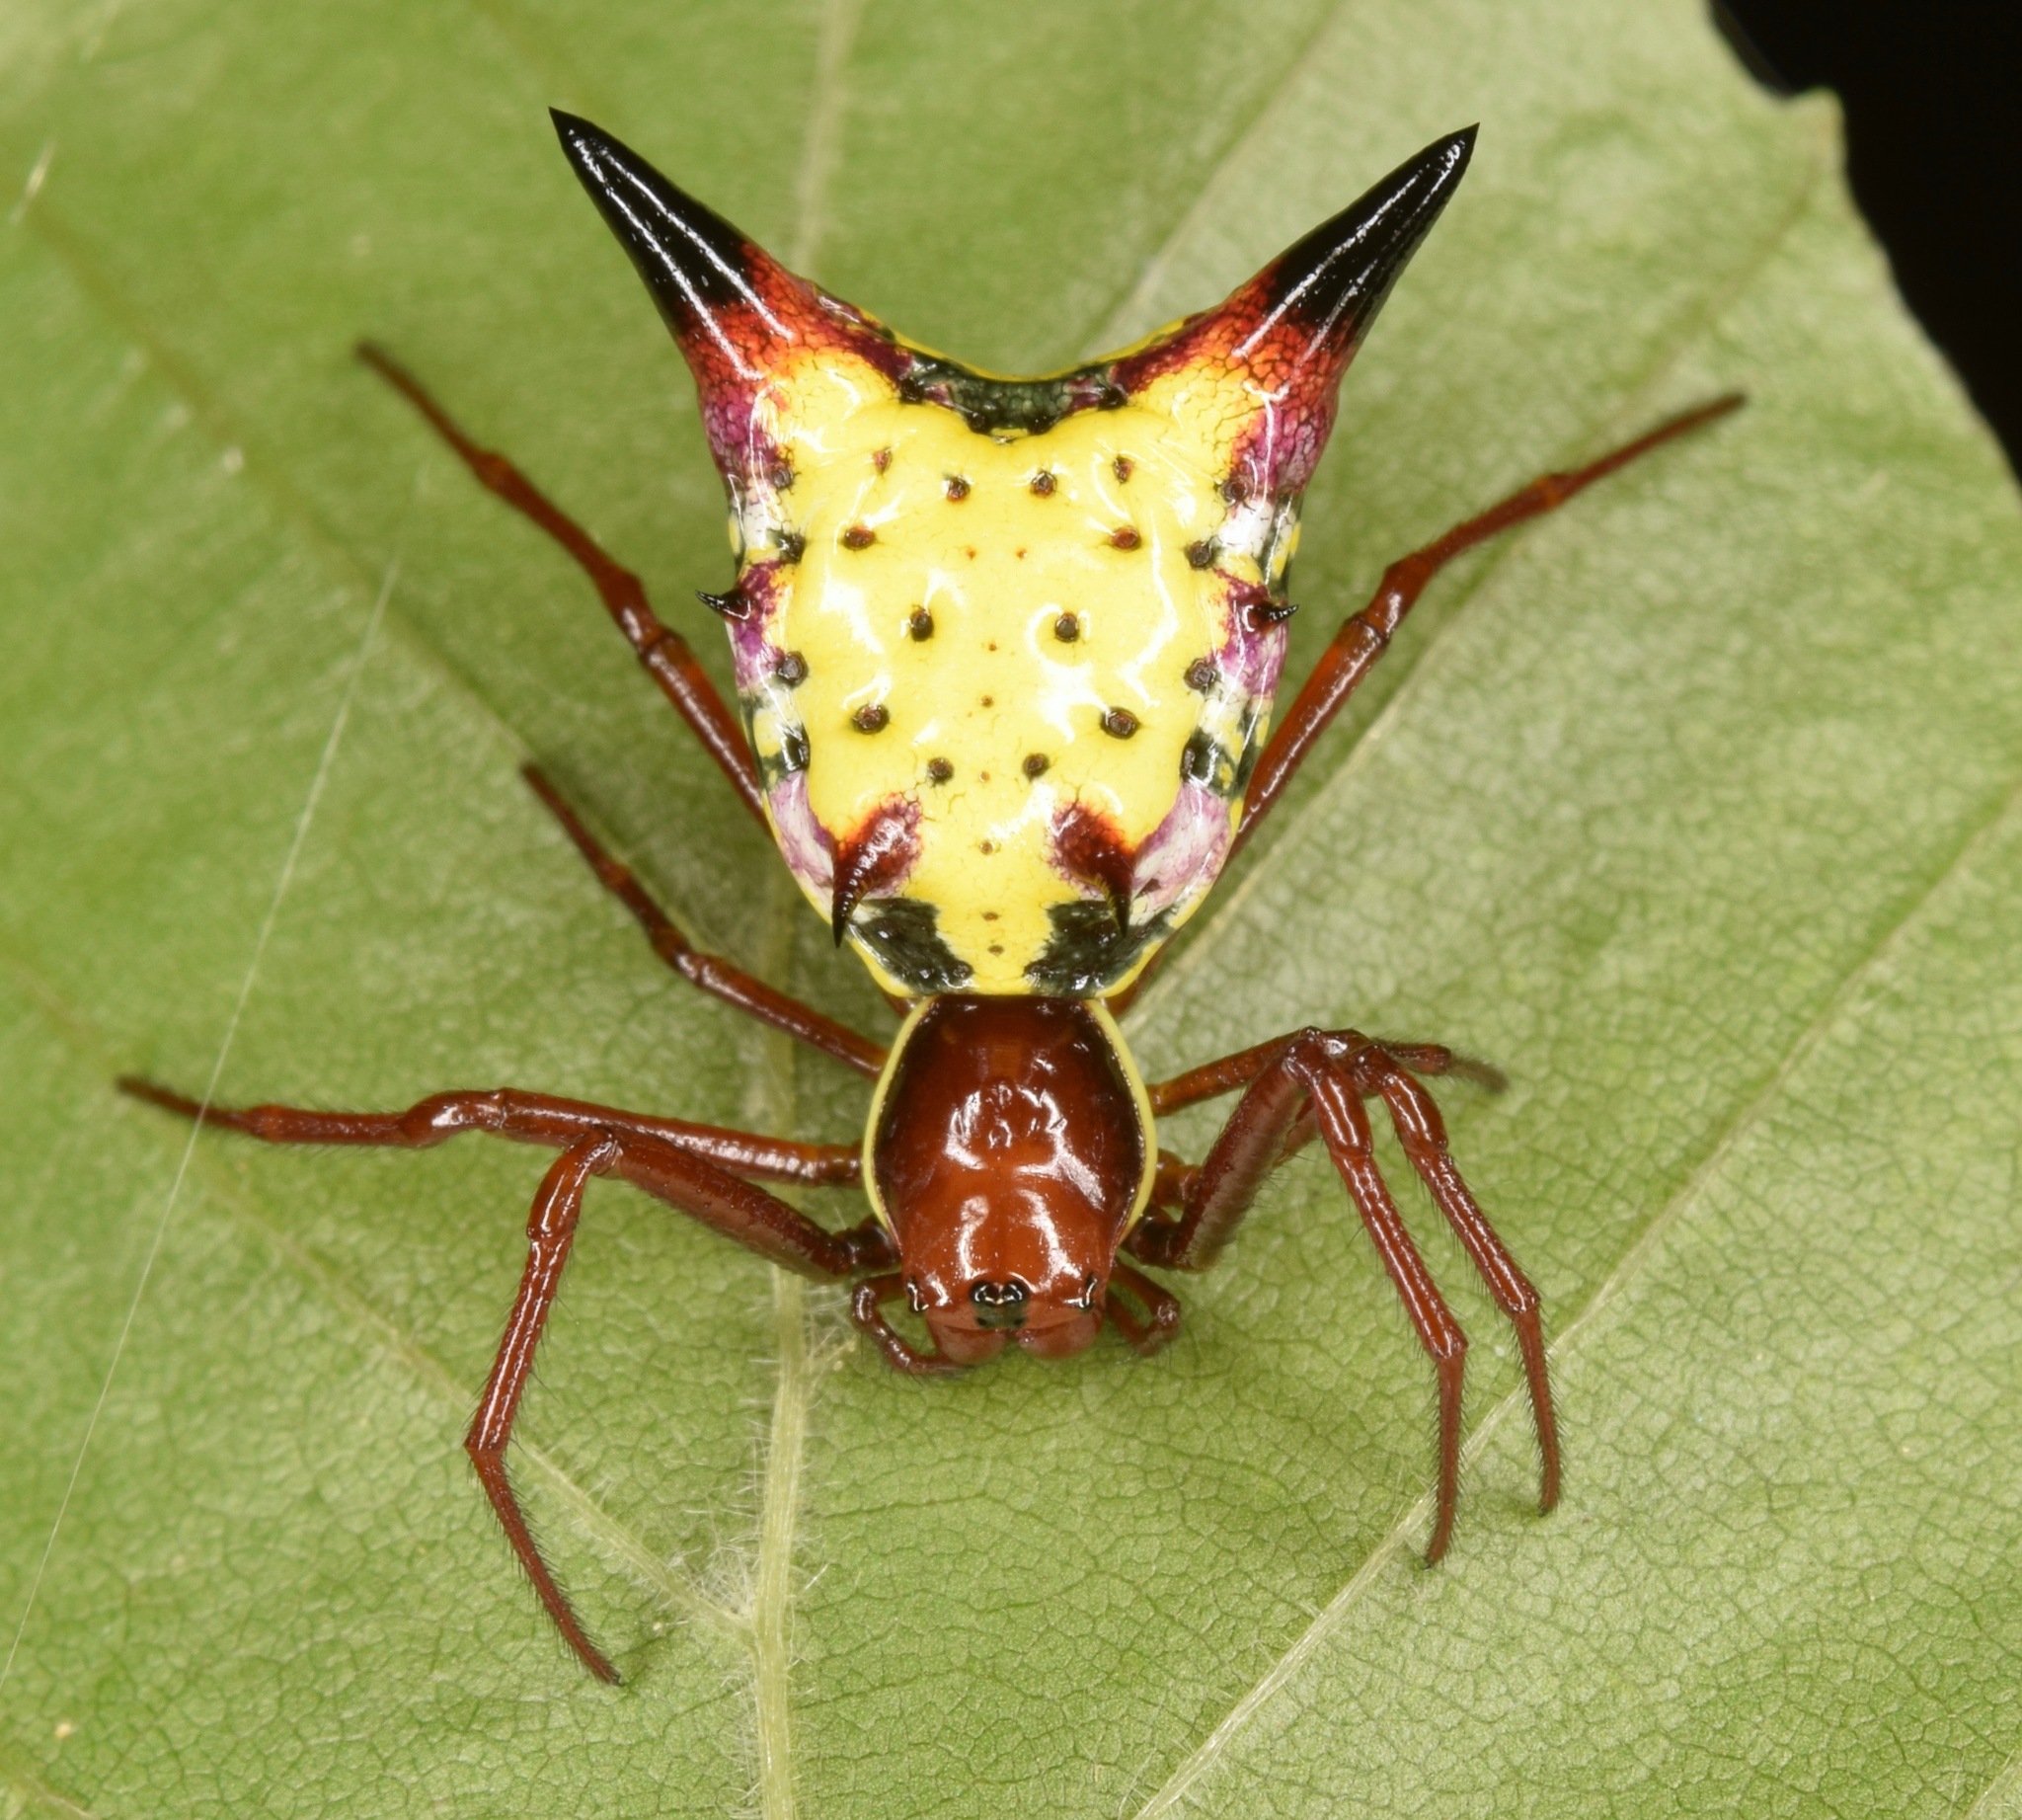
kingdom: Animalia
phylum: Arthropoda
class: Arachnida
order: Araneae
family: Araneidae
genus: Micrathena
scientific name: Micrathena sagittata
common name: Orb weavers
